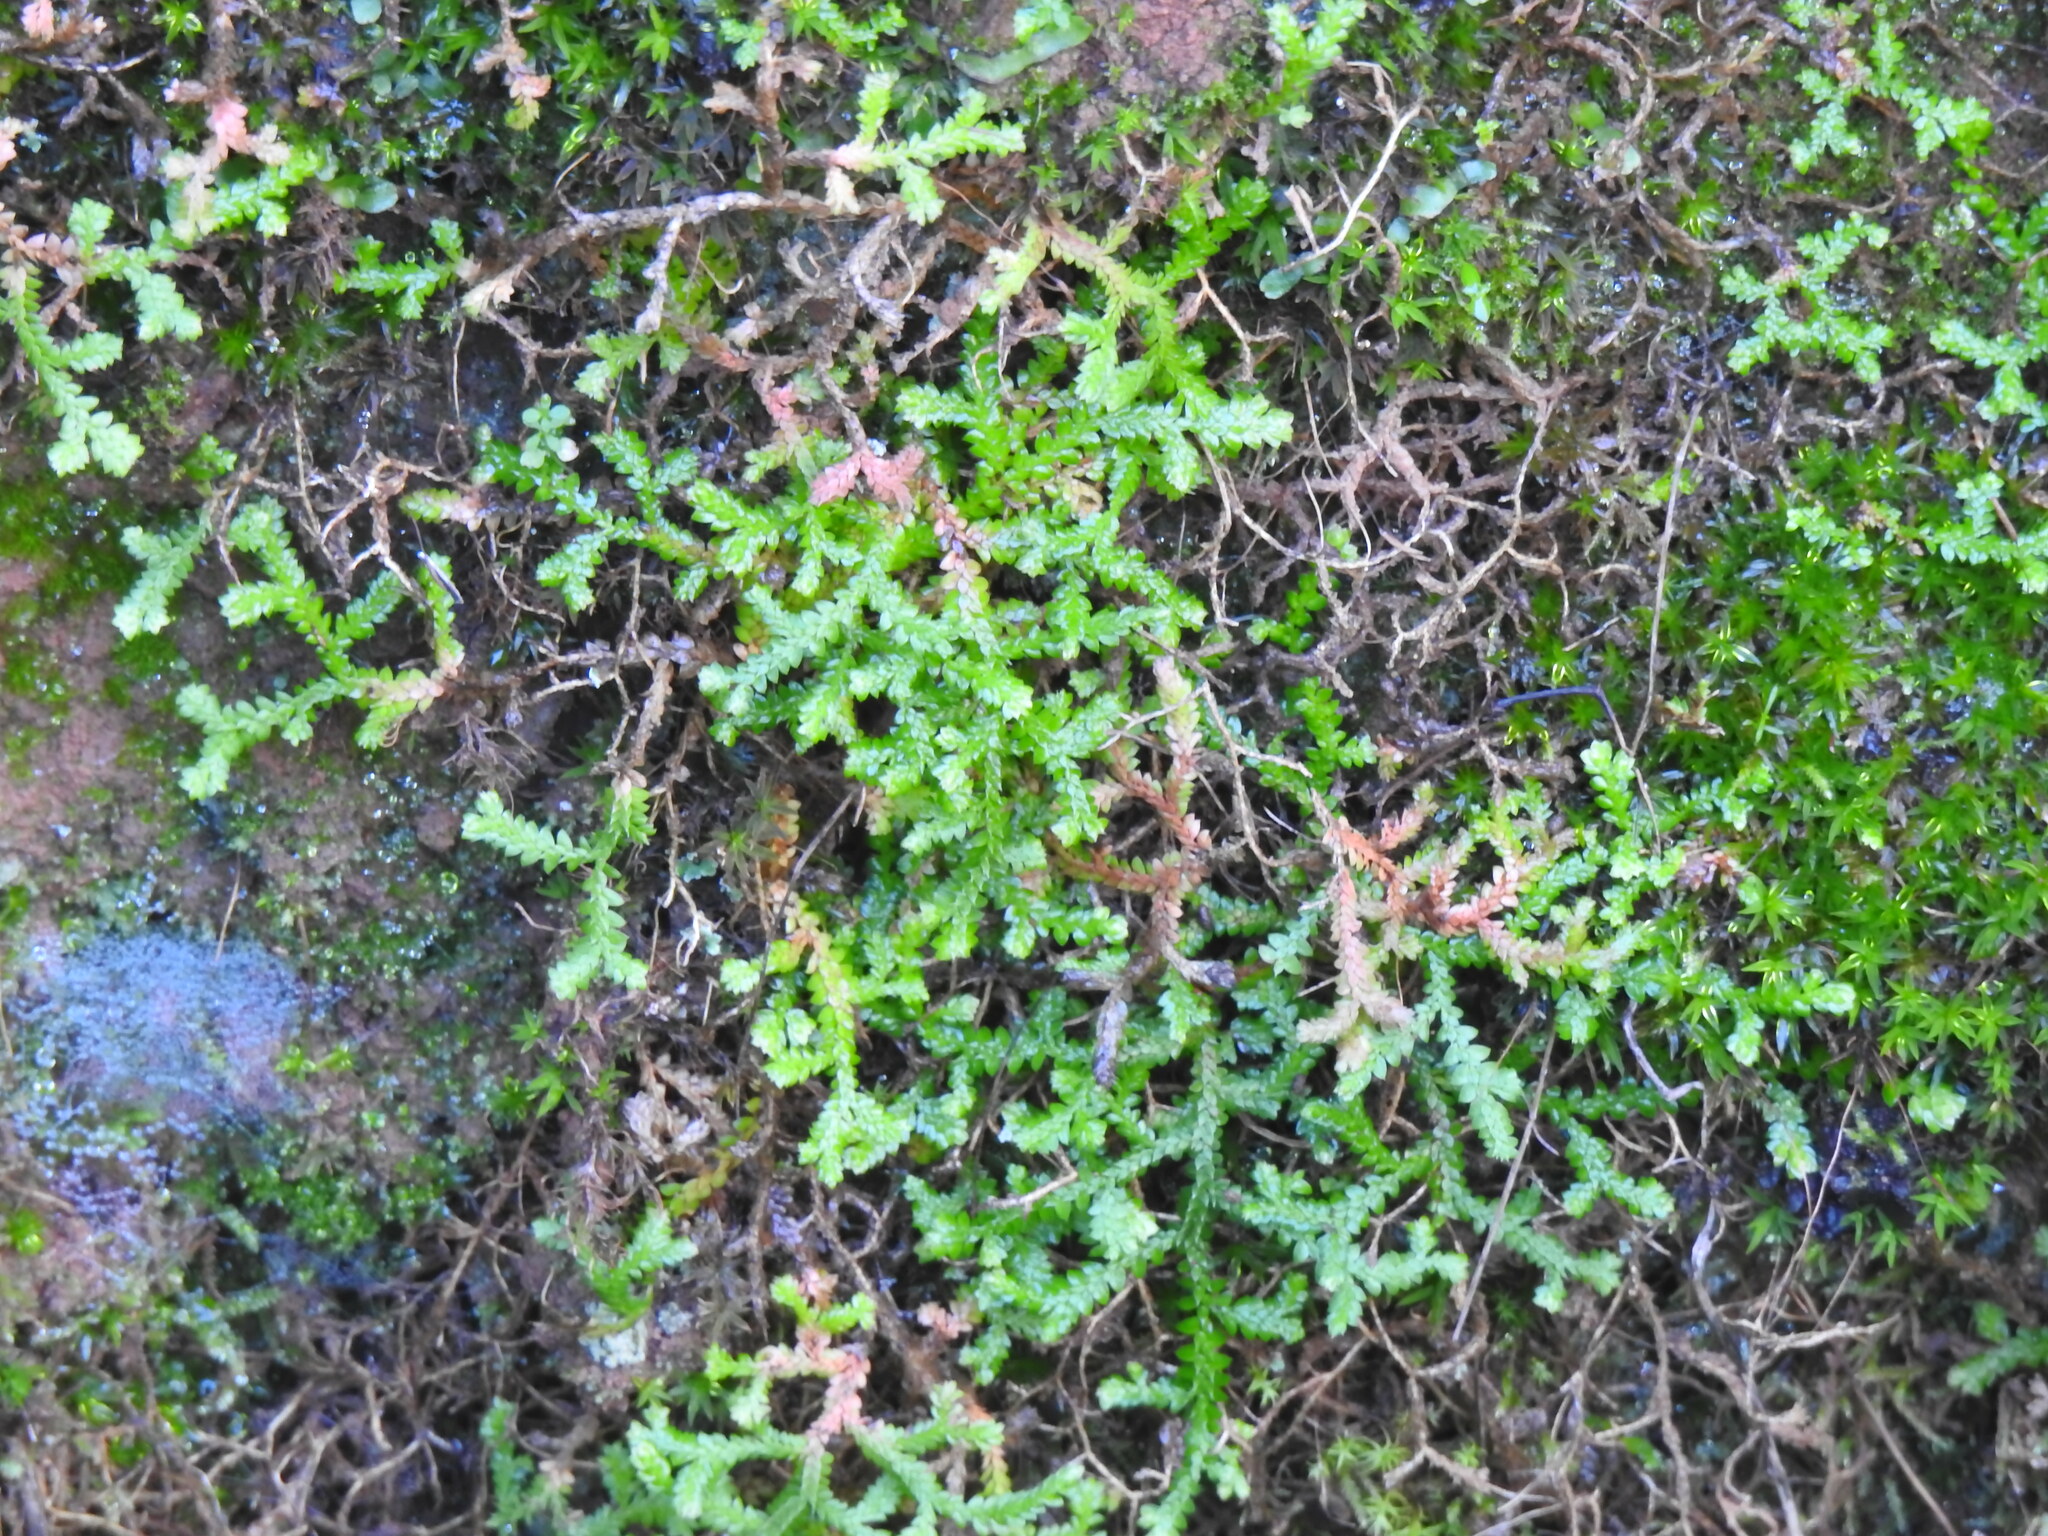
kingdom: Plantae
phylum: Tracheophyta
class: Lycopodiopsida
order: Selaginellales
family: Selaginellaceae
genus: Selaginella
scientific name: Selaginella denticulata
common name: Toothed-leaved clubmoss
